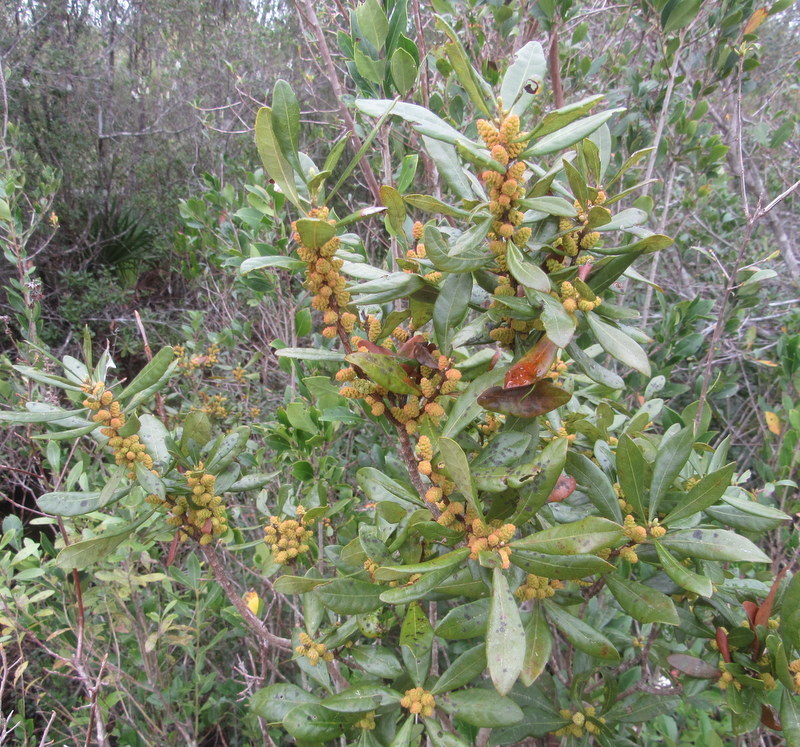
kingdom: Plantae
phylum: Tracheophyta
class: Magnoliopsida
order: Fagales
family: Myricaceae
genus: Morella
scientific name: Morella cerifera
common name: Wax myrtle
